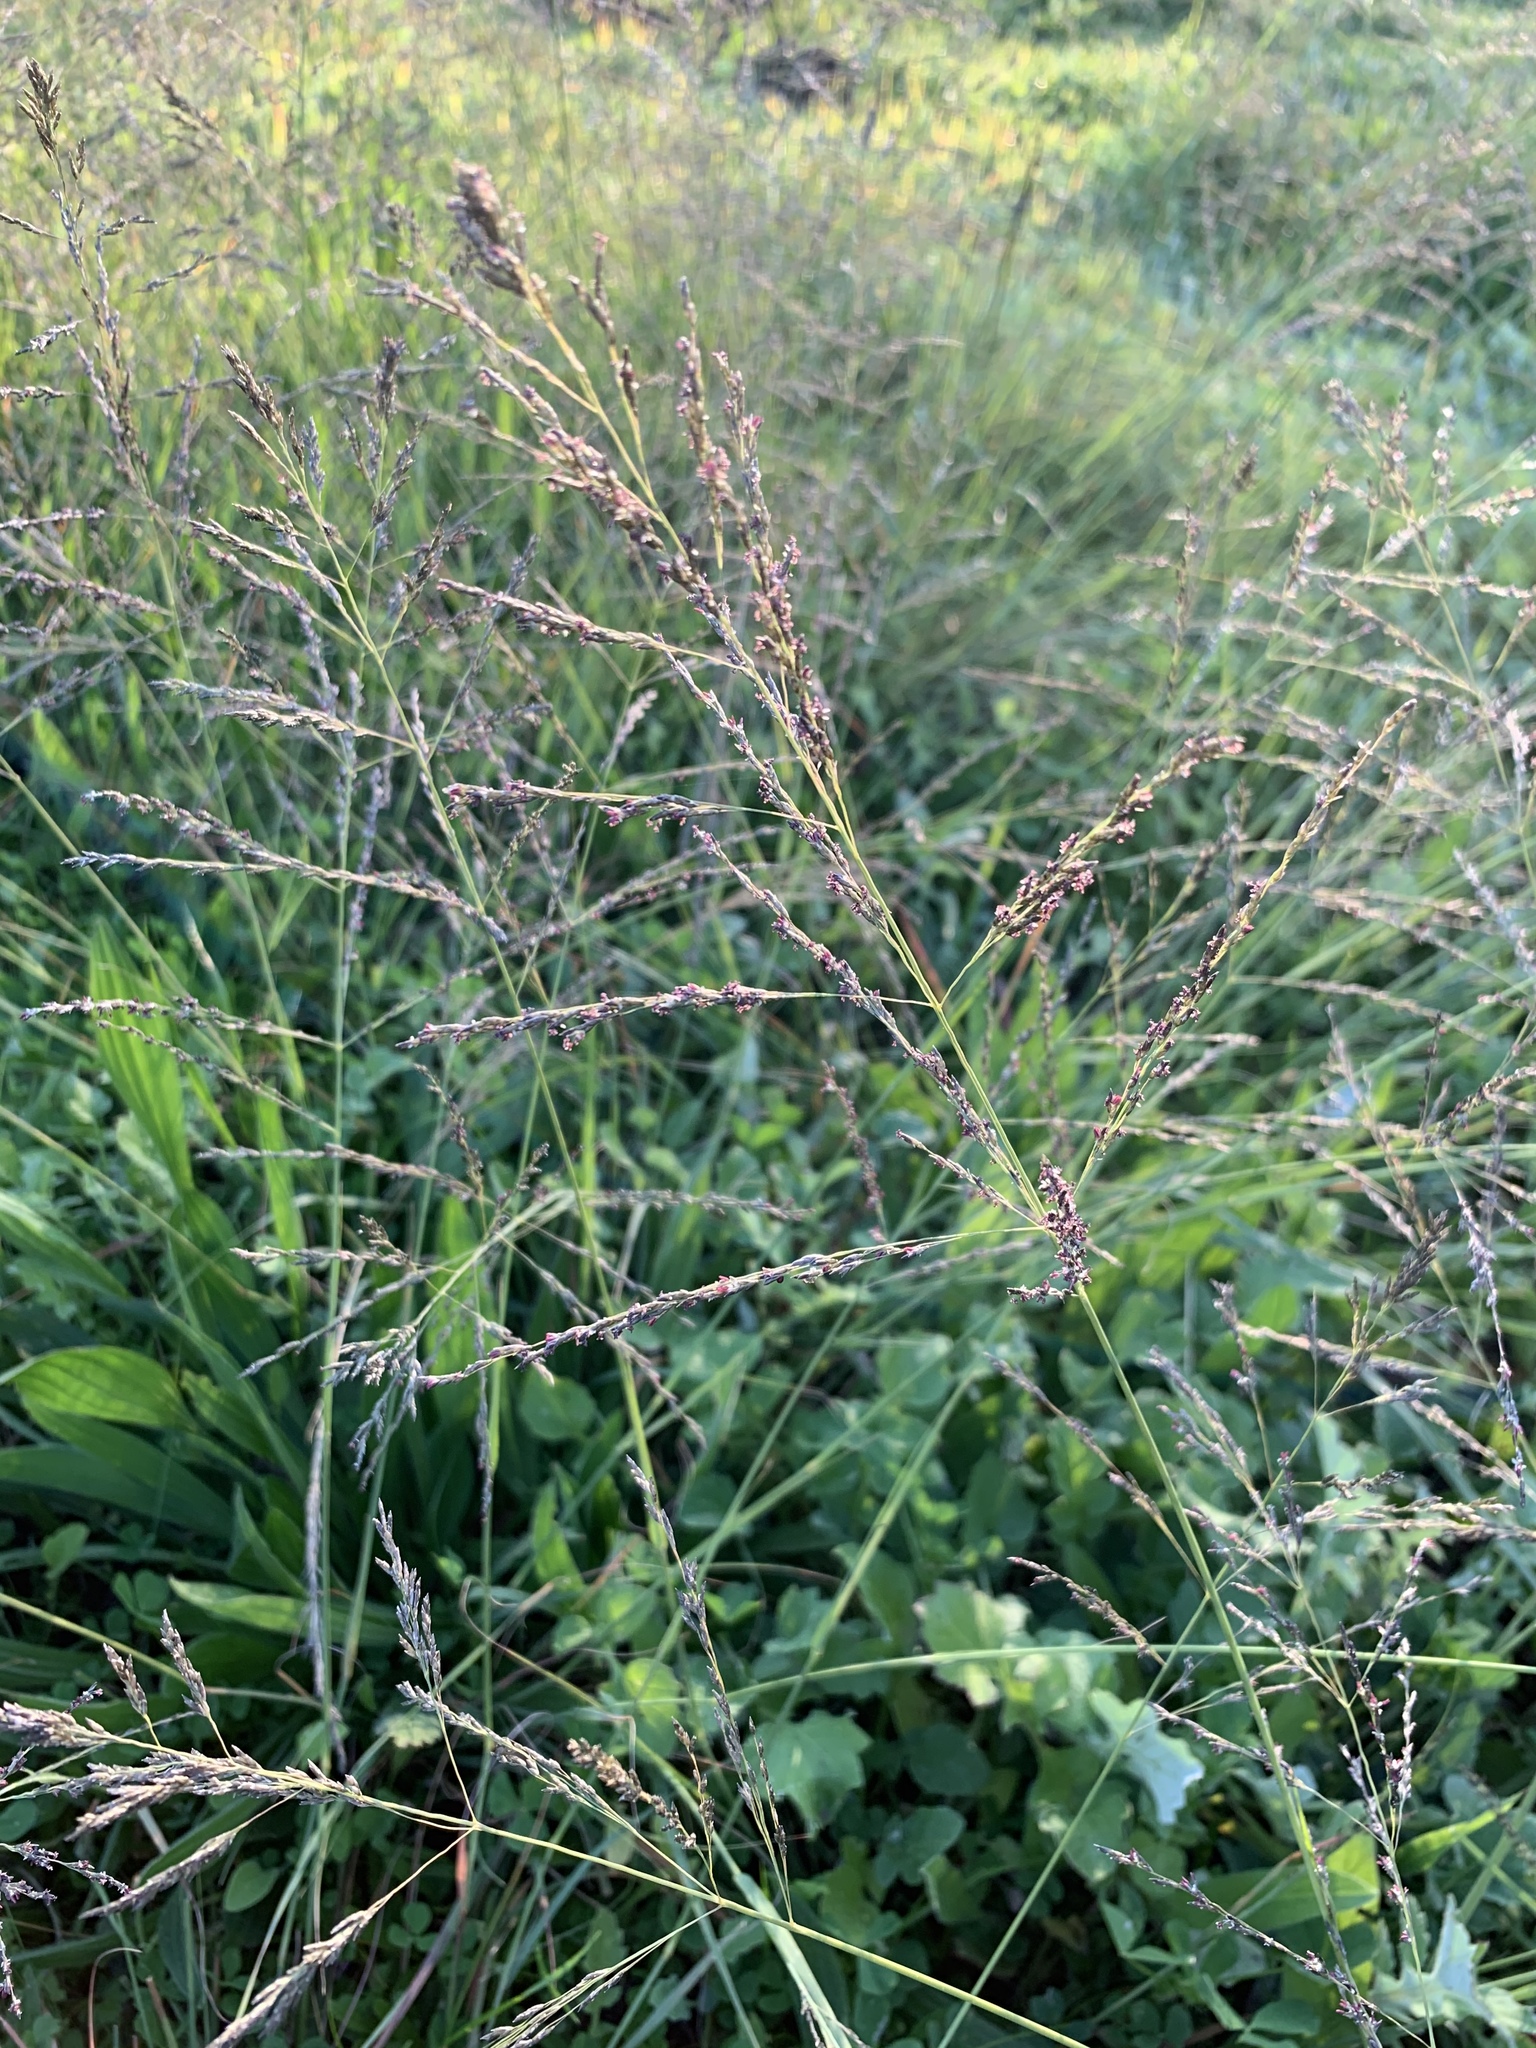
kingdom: Plantae
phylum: Tracheophyta
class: Liliopsida
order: Poales
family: Poaceae
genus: Eragrostis
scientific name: Eragrostis curvula
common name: African love-grass
